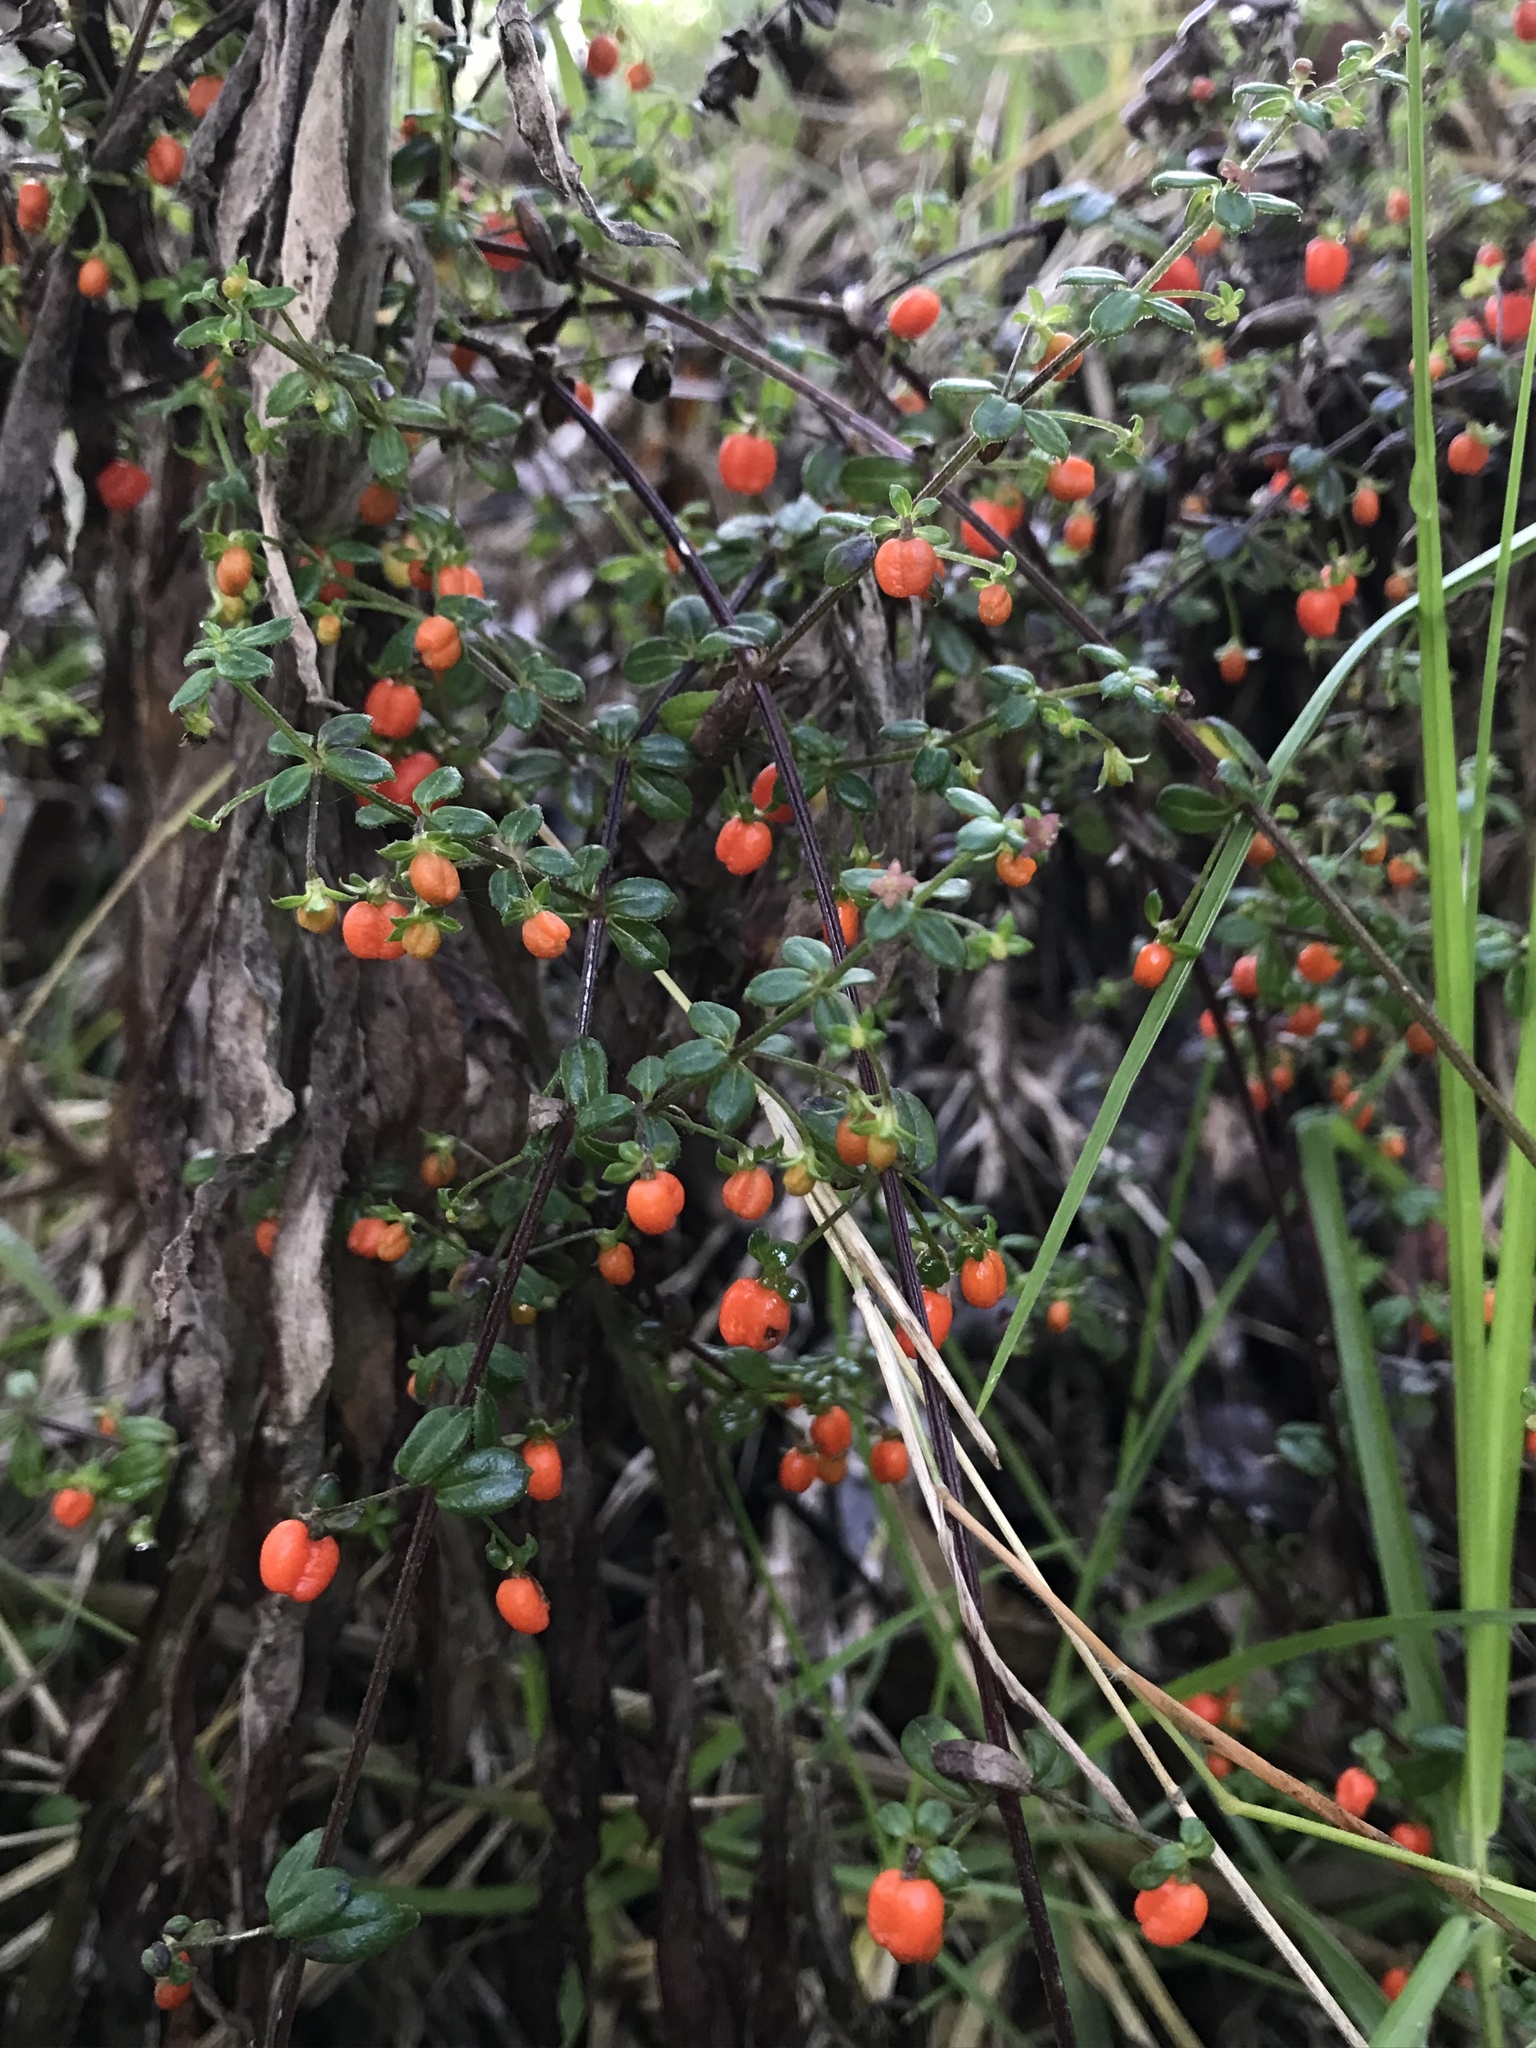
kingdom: Plantae
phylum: Tracheophyta
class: Magnoliopsida
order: Gentianales
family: Rubiaceae
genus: Galium
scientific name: Galium hypocarpium
